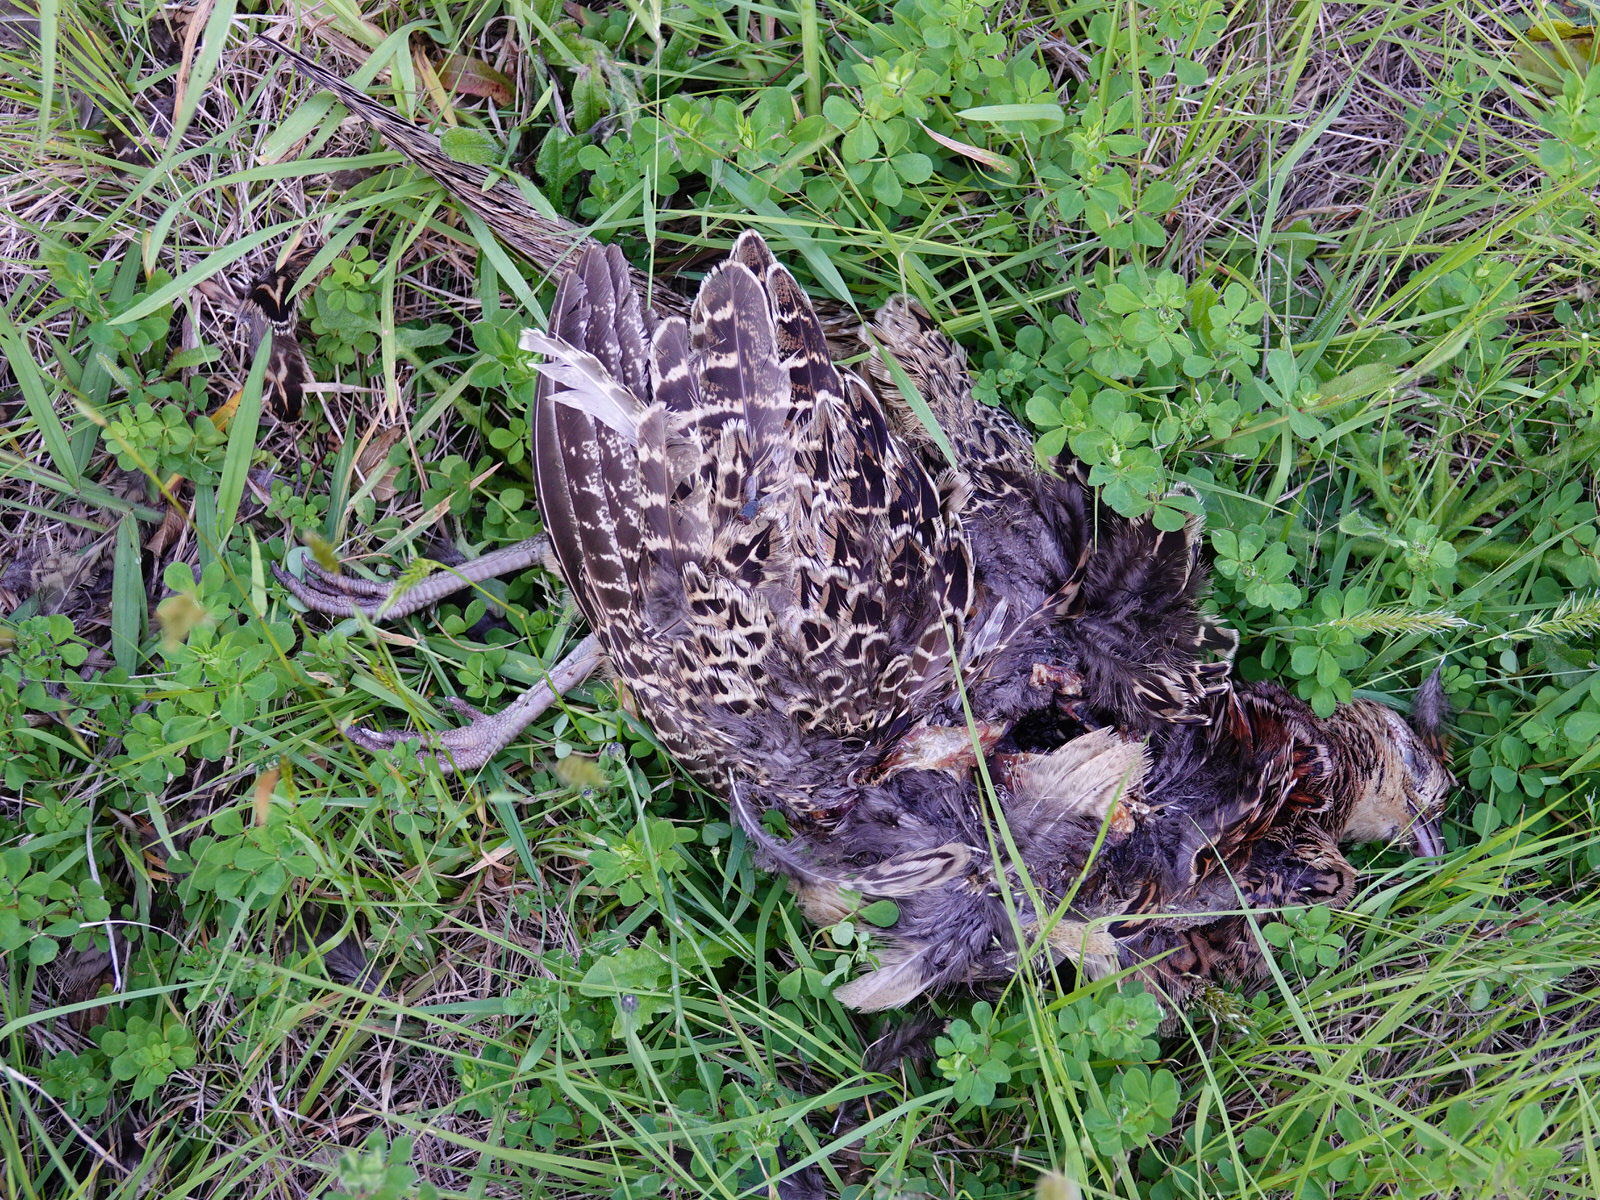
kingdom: Animalia
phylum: Chordata
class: Aves
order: Galliformes
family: Phasianidae
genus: Phasianus
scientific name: Phasianus colchicus
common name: Common pheasant
